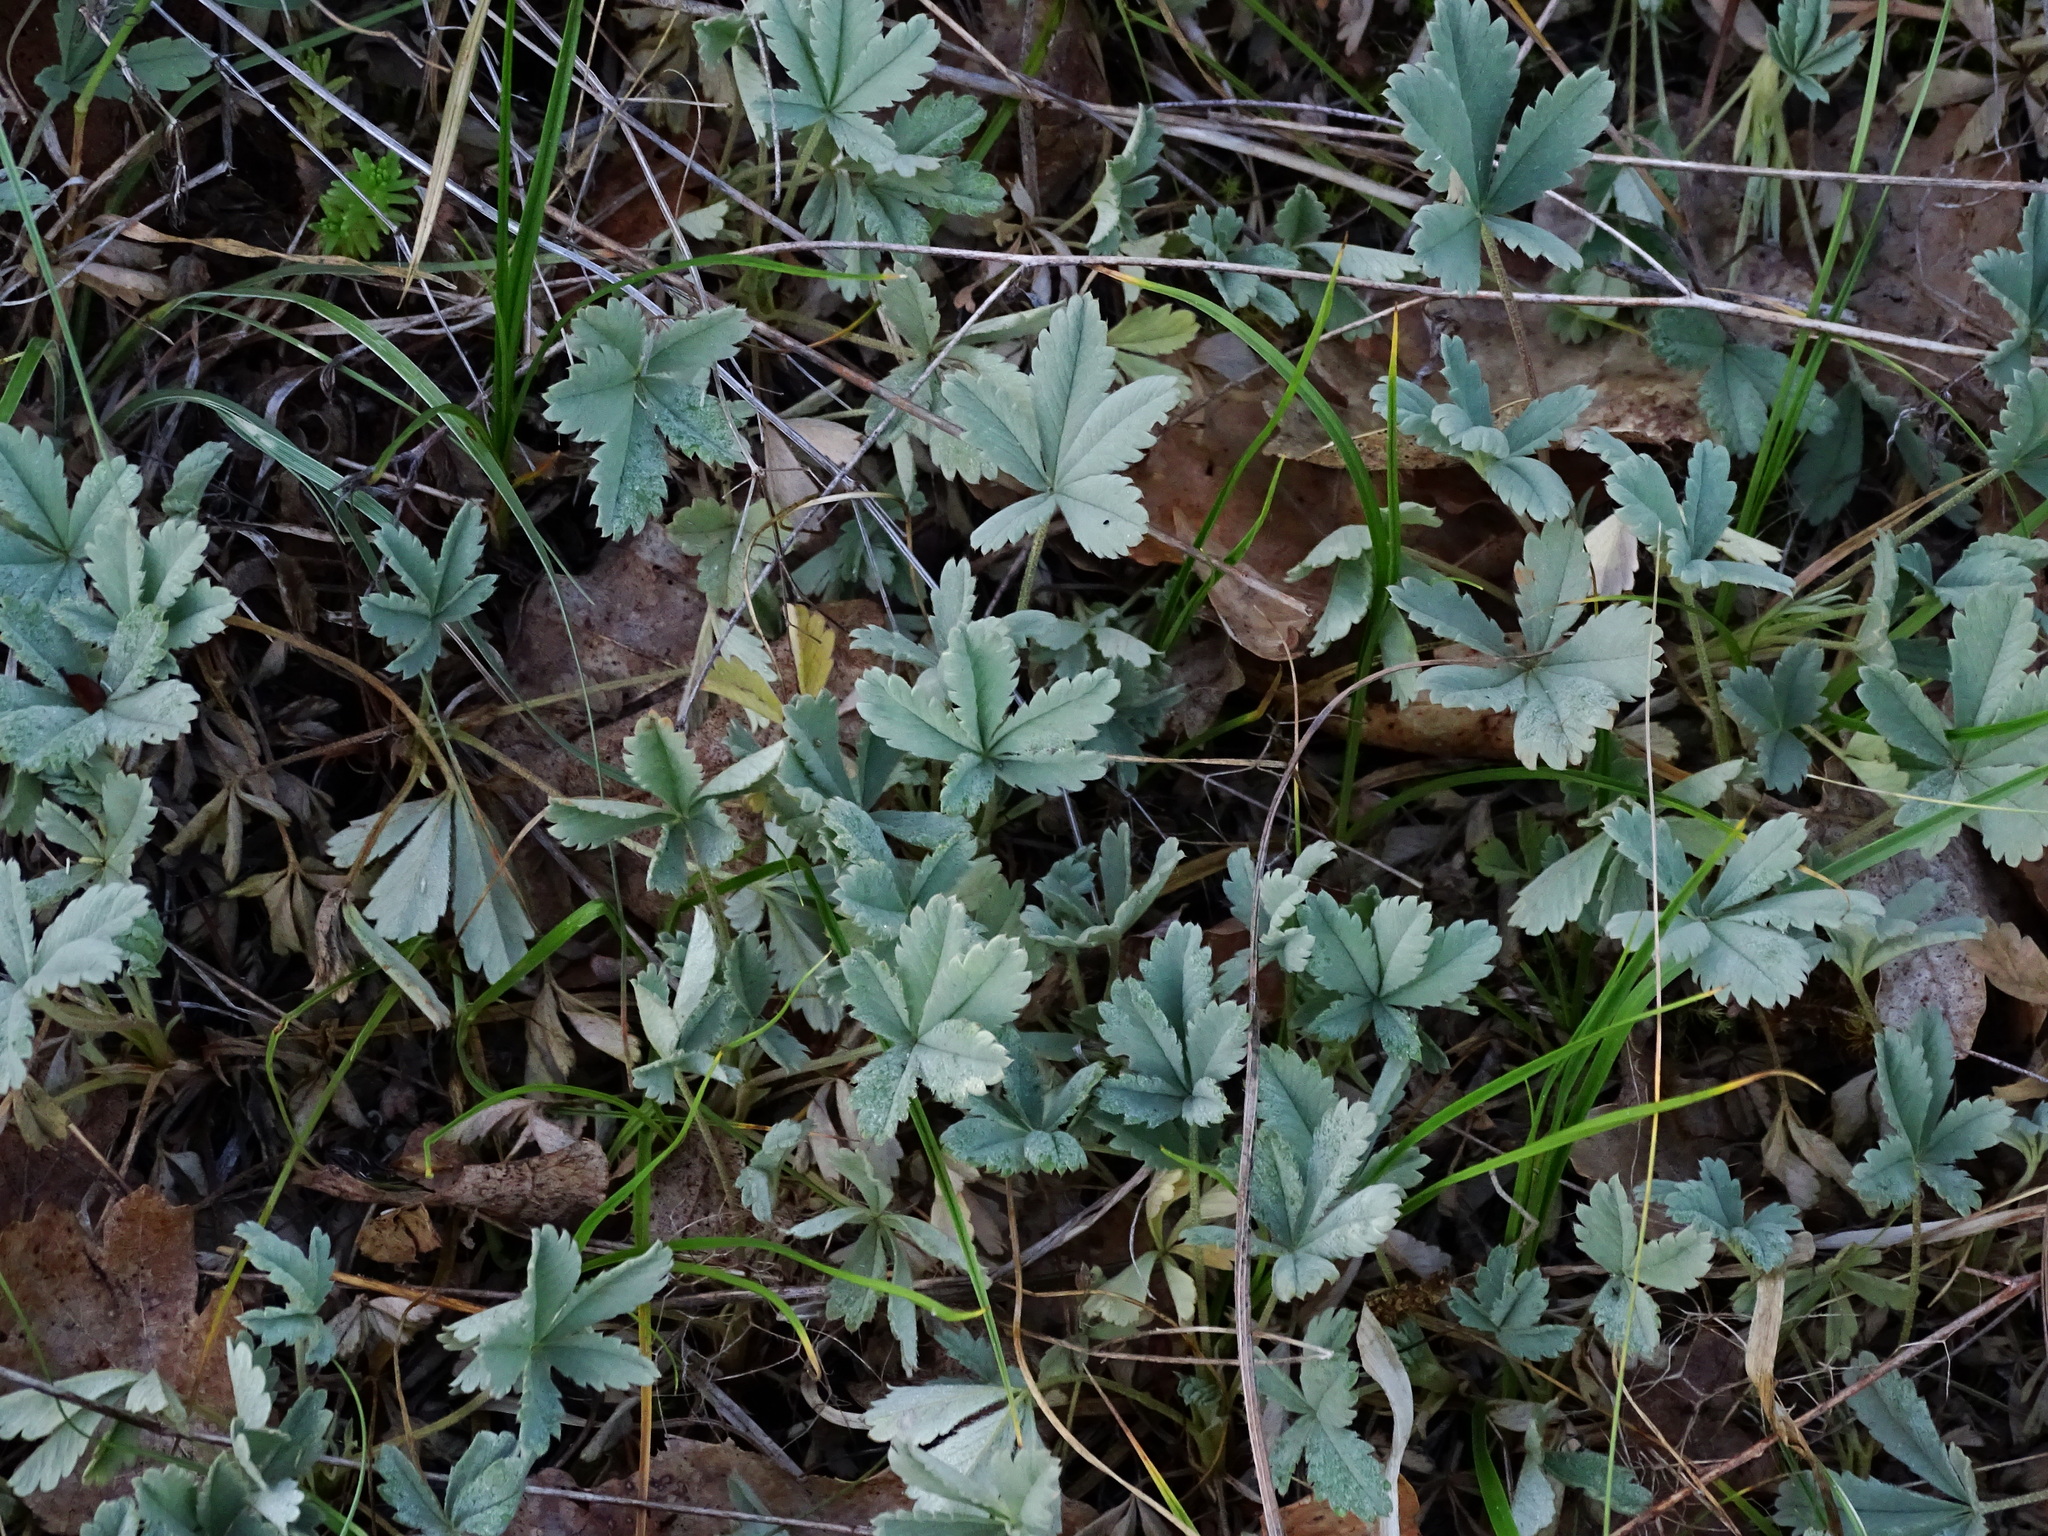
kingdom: Plantae
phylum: Tracheophyta
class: Magnoliopsida
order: Rosales
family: Rosaceae
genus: Potentilla
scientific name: Potentilla incana
